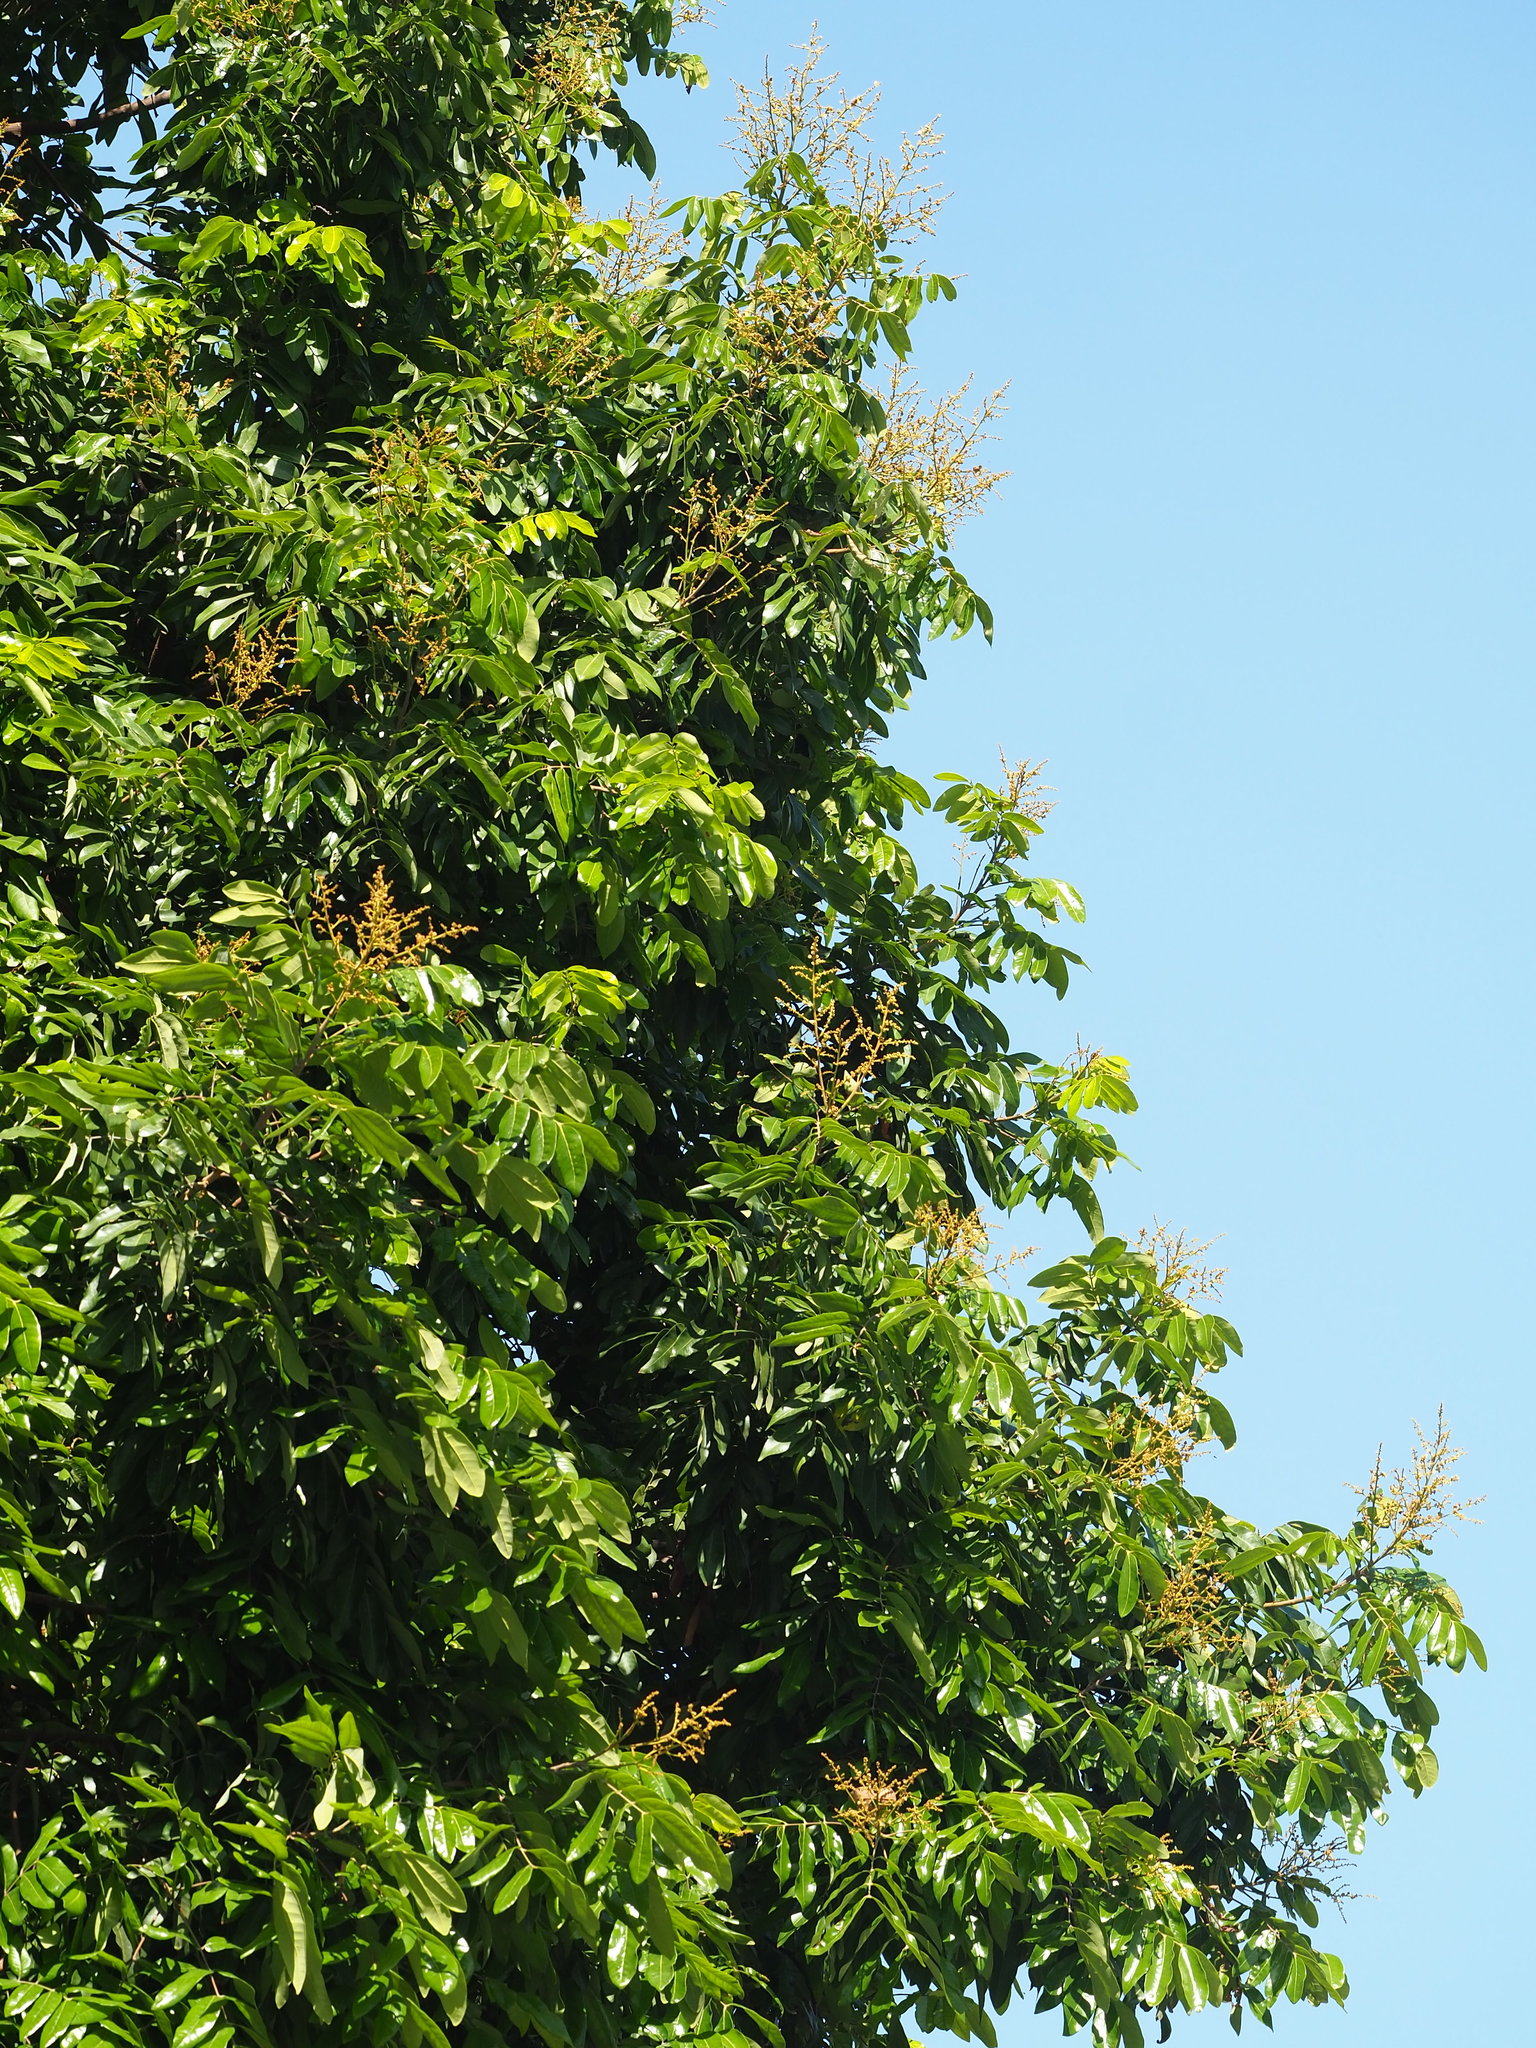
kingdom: Plantae
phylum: Tracheophyta
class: Magnoliopsida
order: Sapindales
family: Sapindaceae
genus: Dimocarpus
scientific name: Dimocarpus longan
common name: Longan
